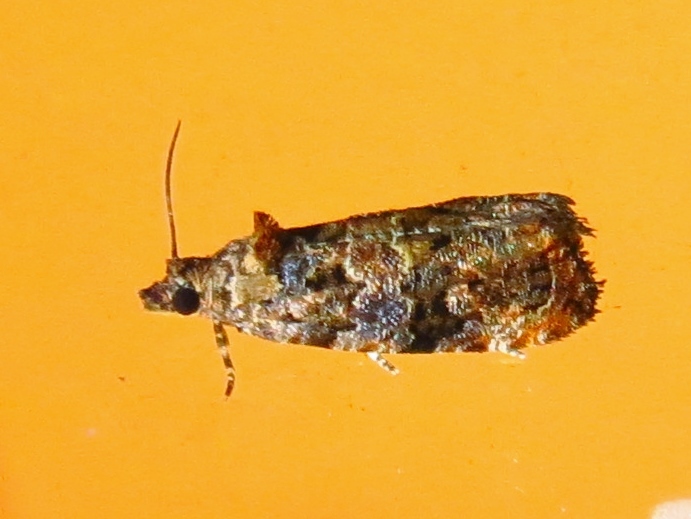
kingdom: Animalia
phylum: Arthropoda
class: Insecta
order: Lepidoptera
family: Tortricidae
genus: Endothenia
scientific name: Endothenia hebesana
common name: Verbena bud moth
